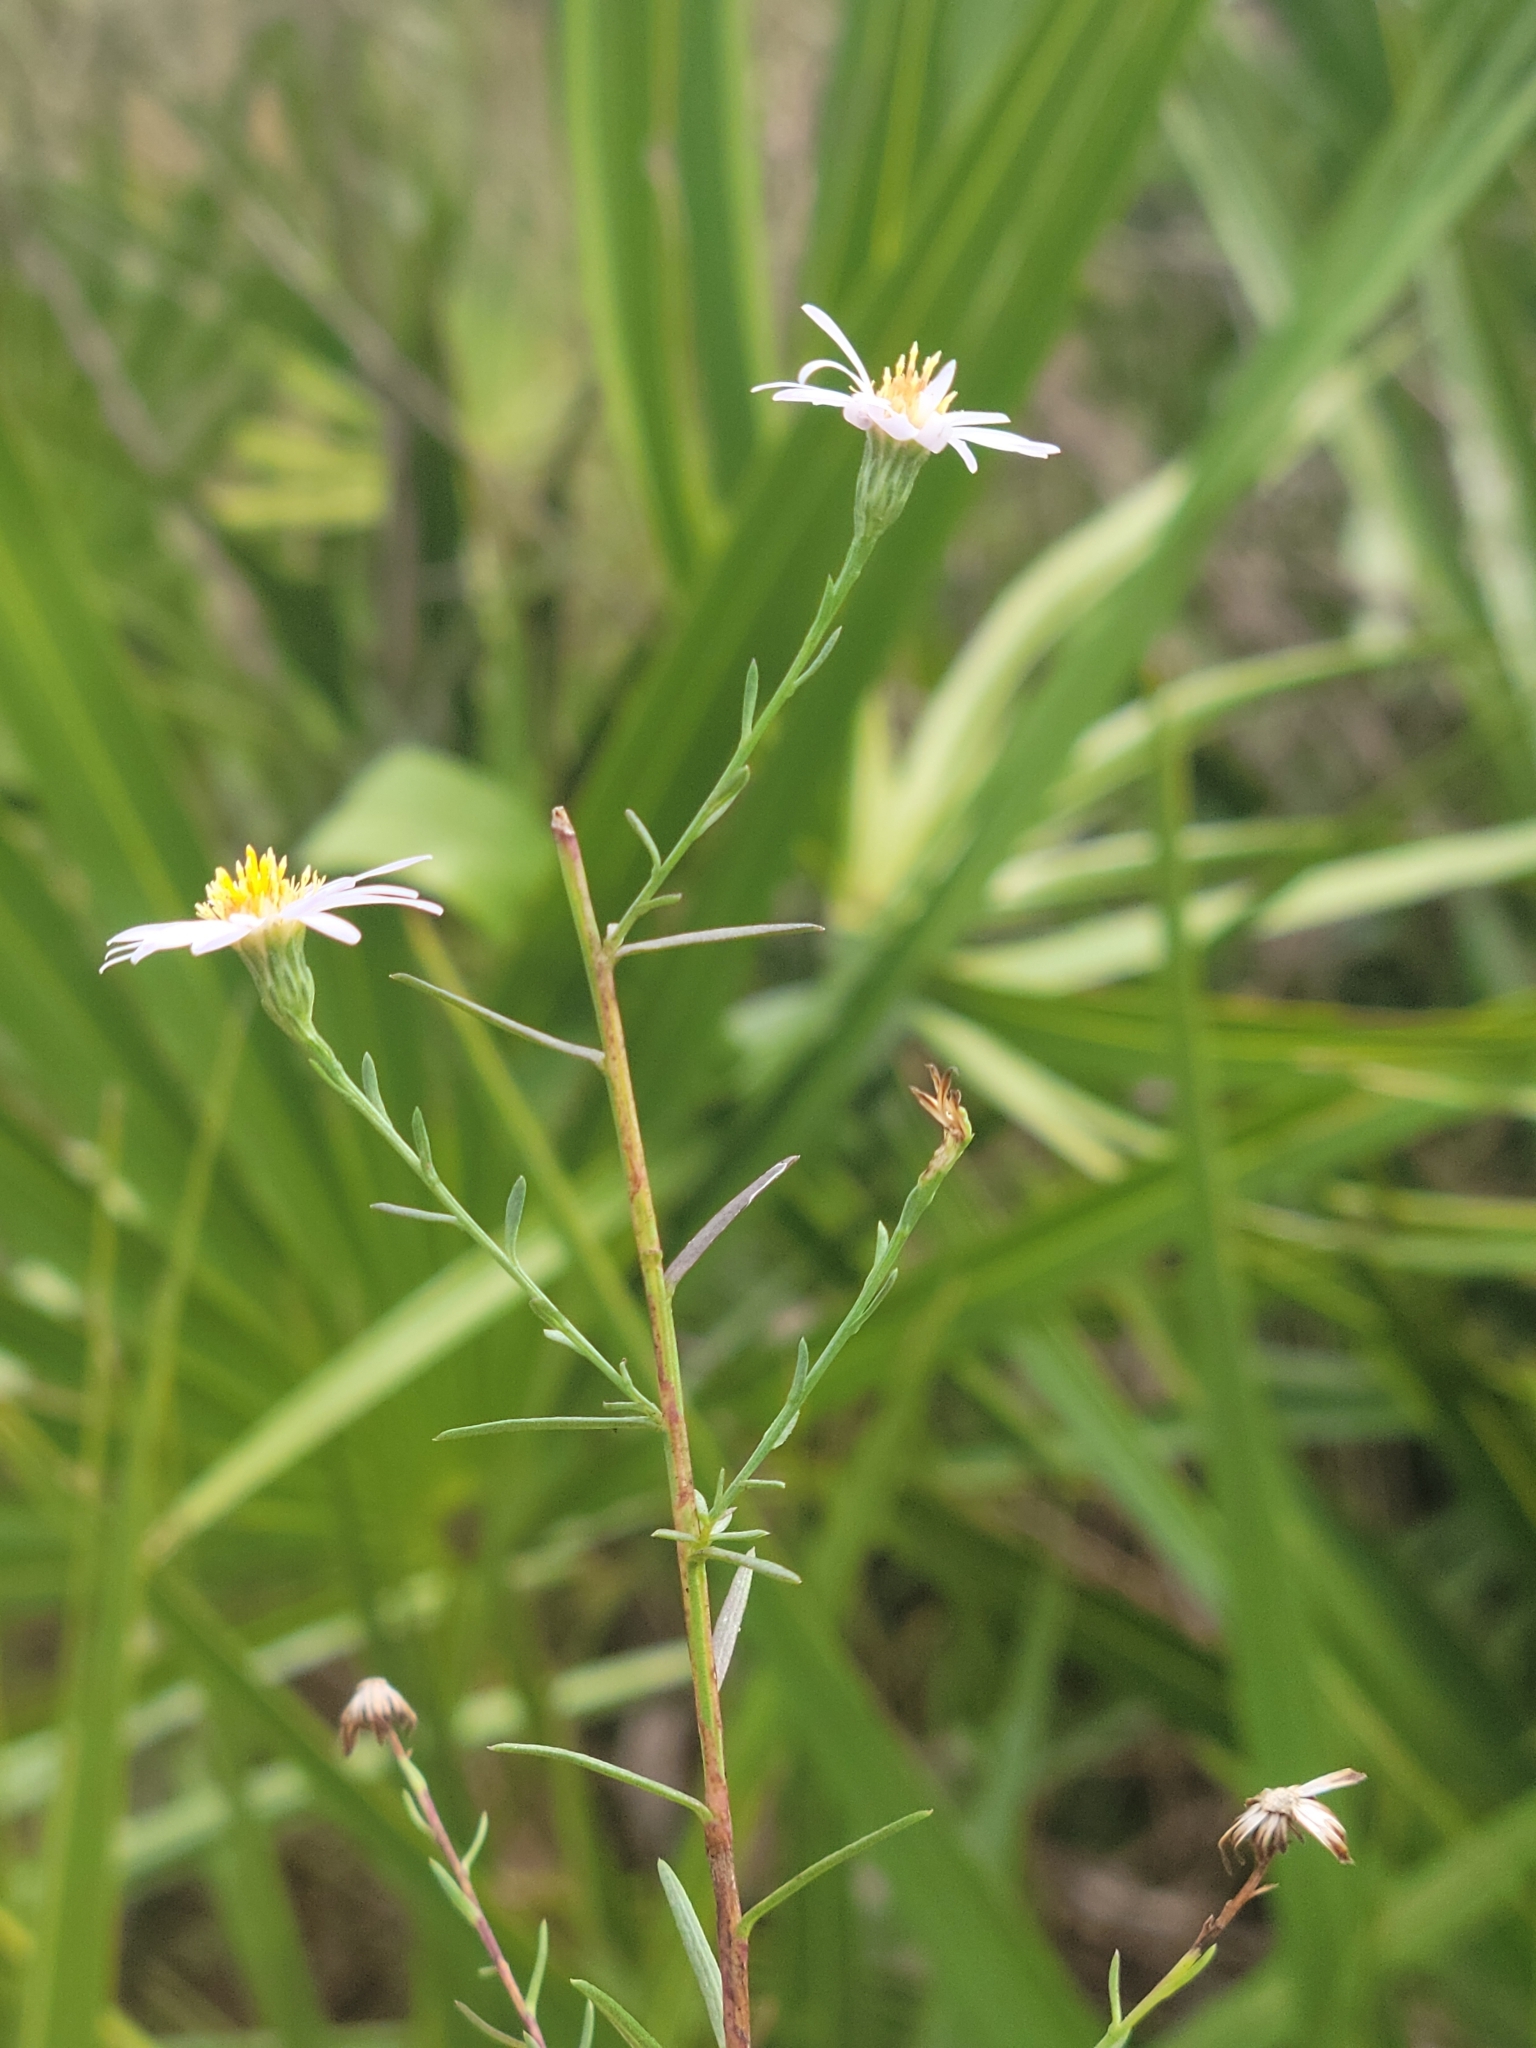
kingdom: Plantae
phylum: Tracheophyta
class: Magnoliopsida
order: Asterales
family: Asteraceae
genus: Symphyotrichum
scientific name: Symphyotrichum dumosum
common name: Bushy aster
